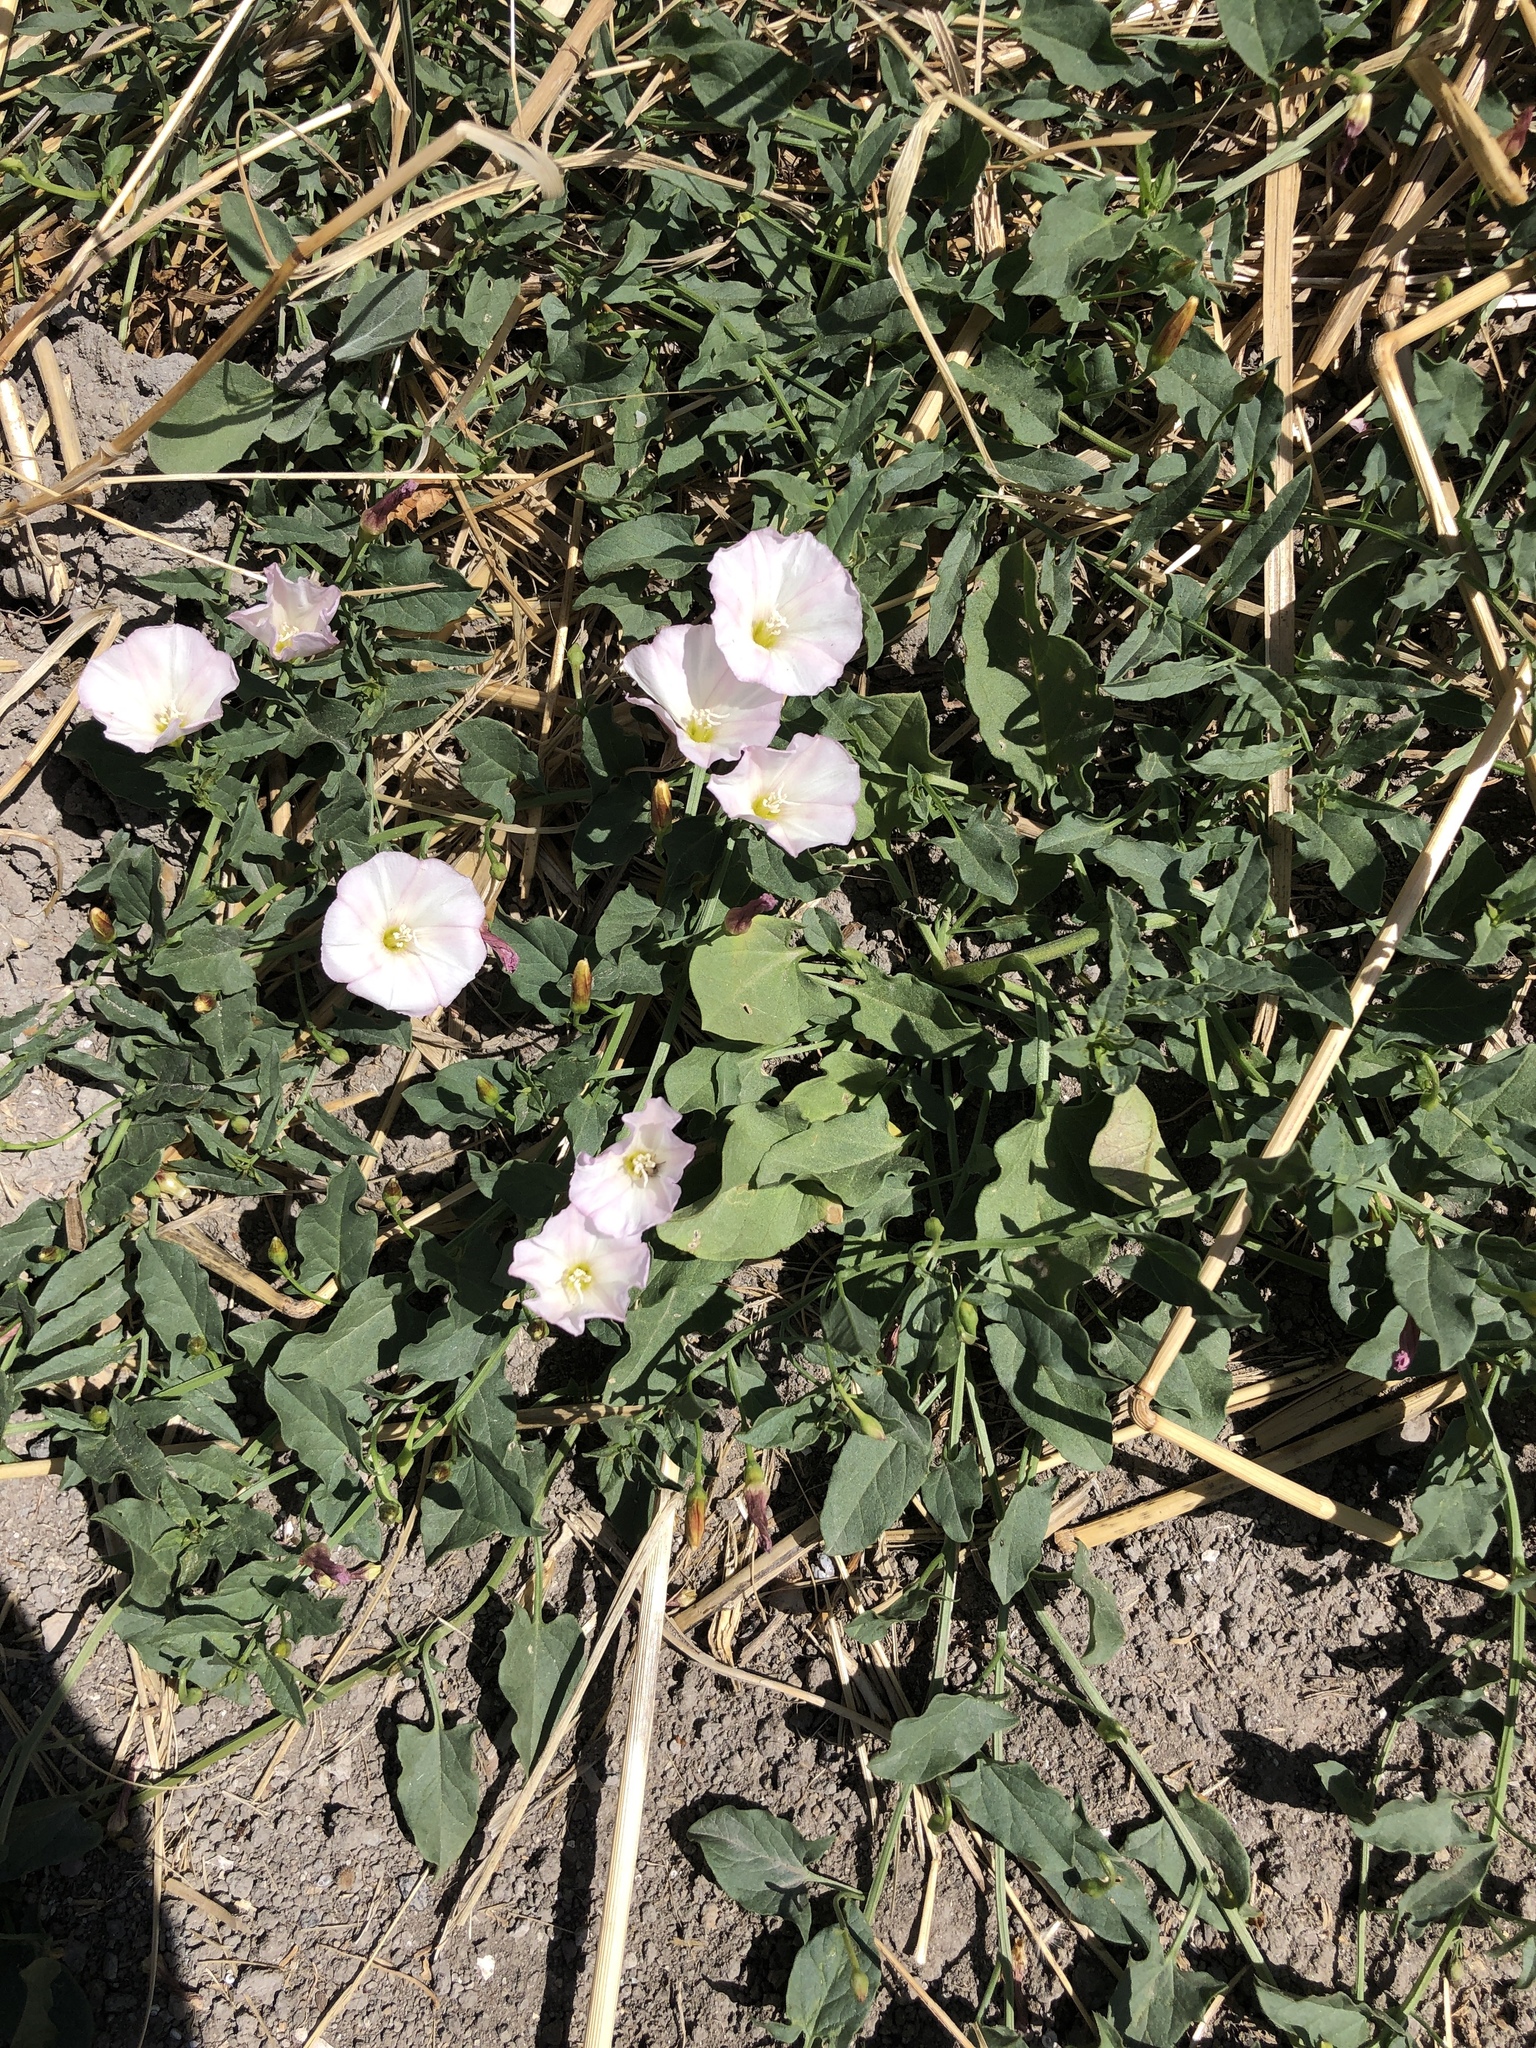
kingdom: Plantae
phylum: Tracheophyta
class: Magnoliopsida
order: Solanales
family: Convolvulaceae
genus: Convolvulus
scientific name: Convolvulus arvensis
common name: Field bindweed
